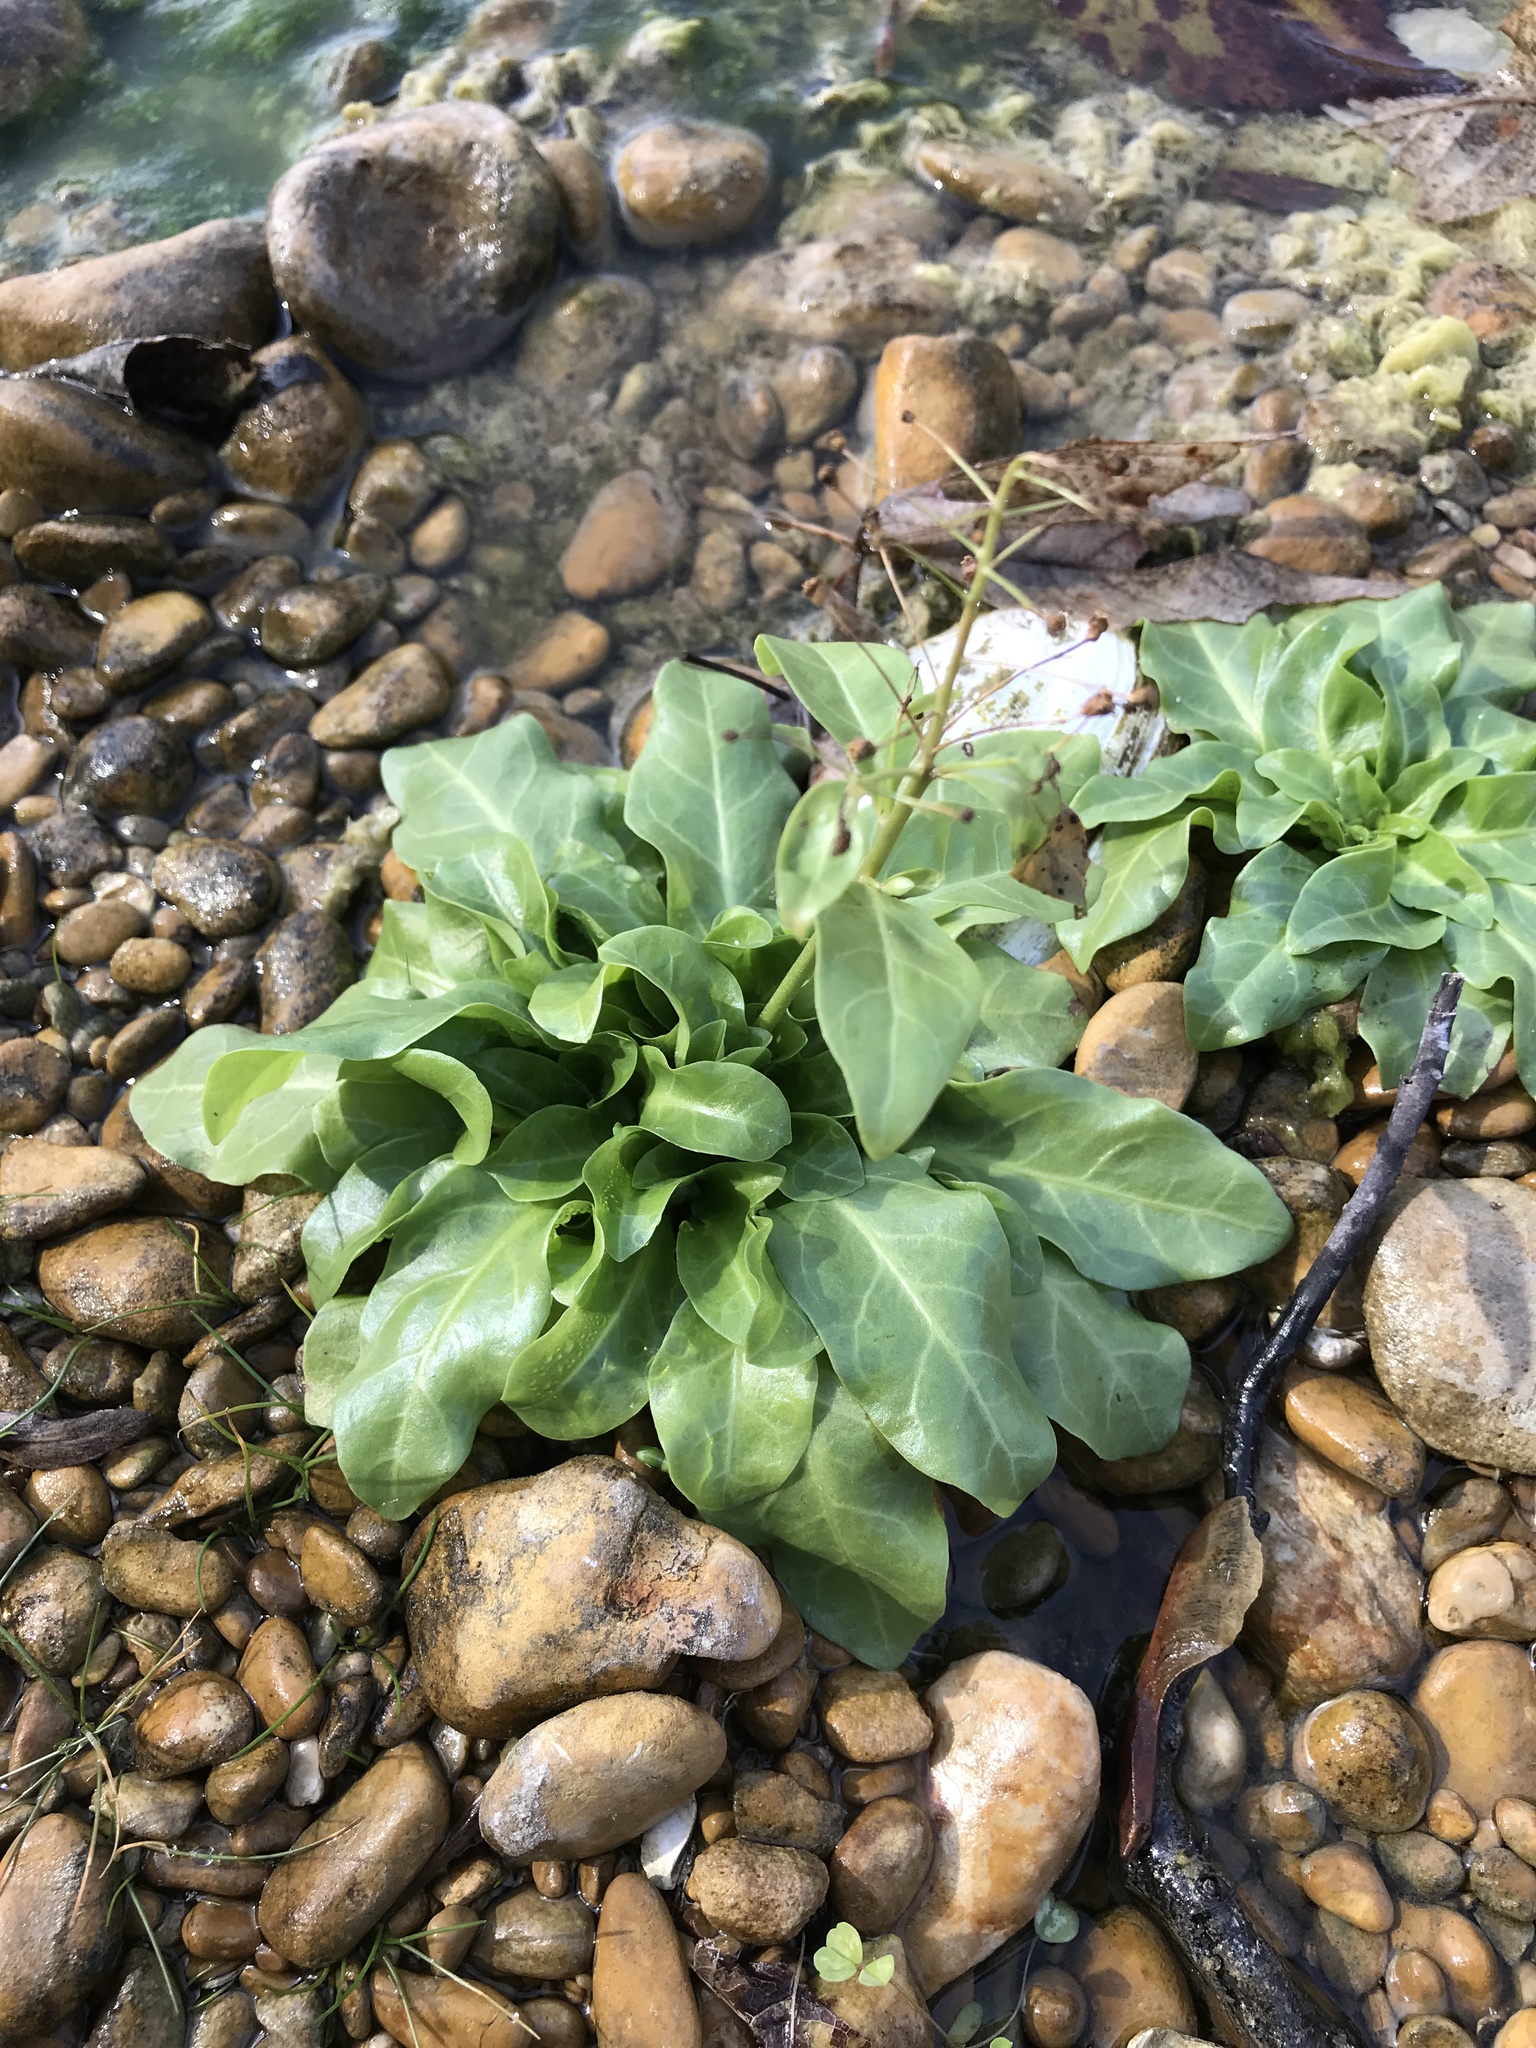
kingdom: Plantae
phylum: Tracheophyta
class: Magnoliopsida
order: Ericales
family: Primulaceae
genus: Samolus
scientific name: Samolus parviflorus
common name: False water pimpernel
